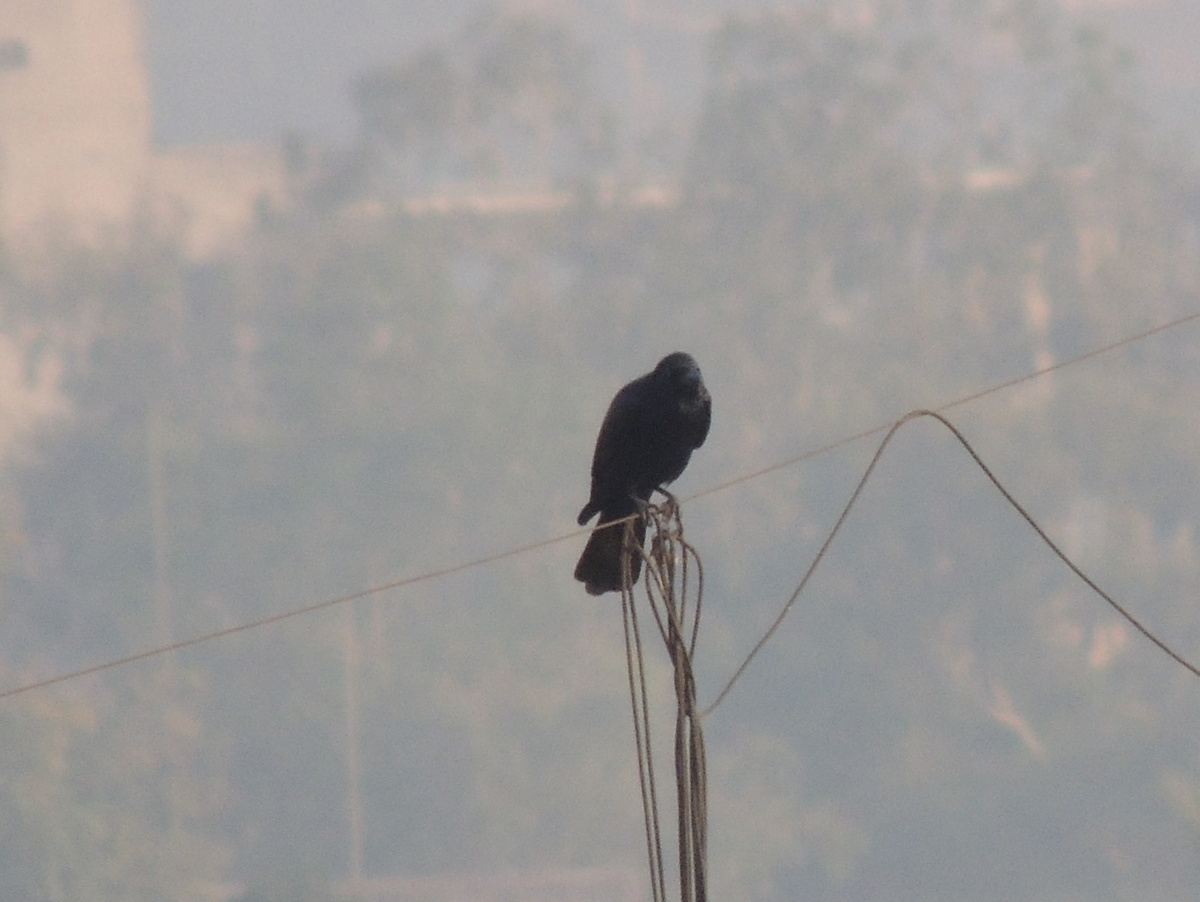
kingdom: Animalia
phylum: Chordata
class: Aves
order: Passeriformes
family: Corvidae
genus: Corvus
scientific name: Corvus splendens
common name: House crow
